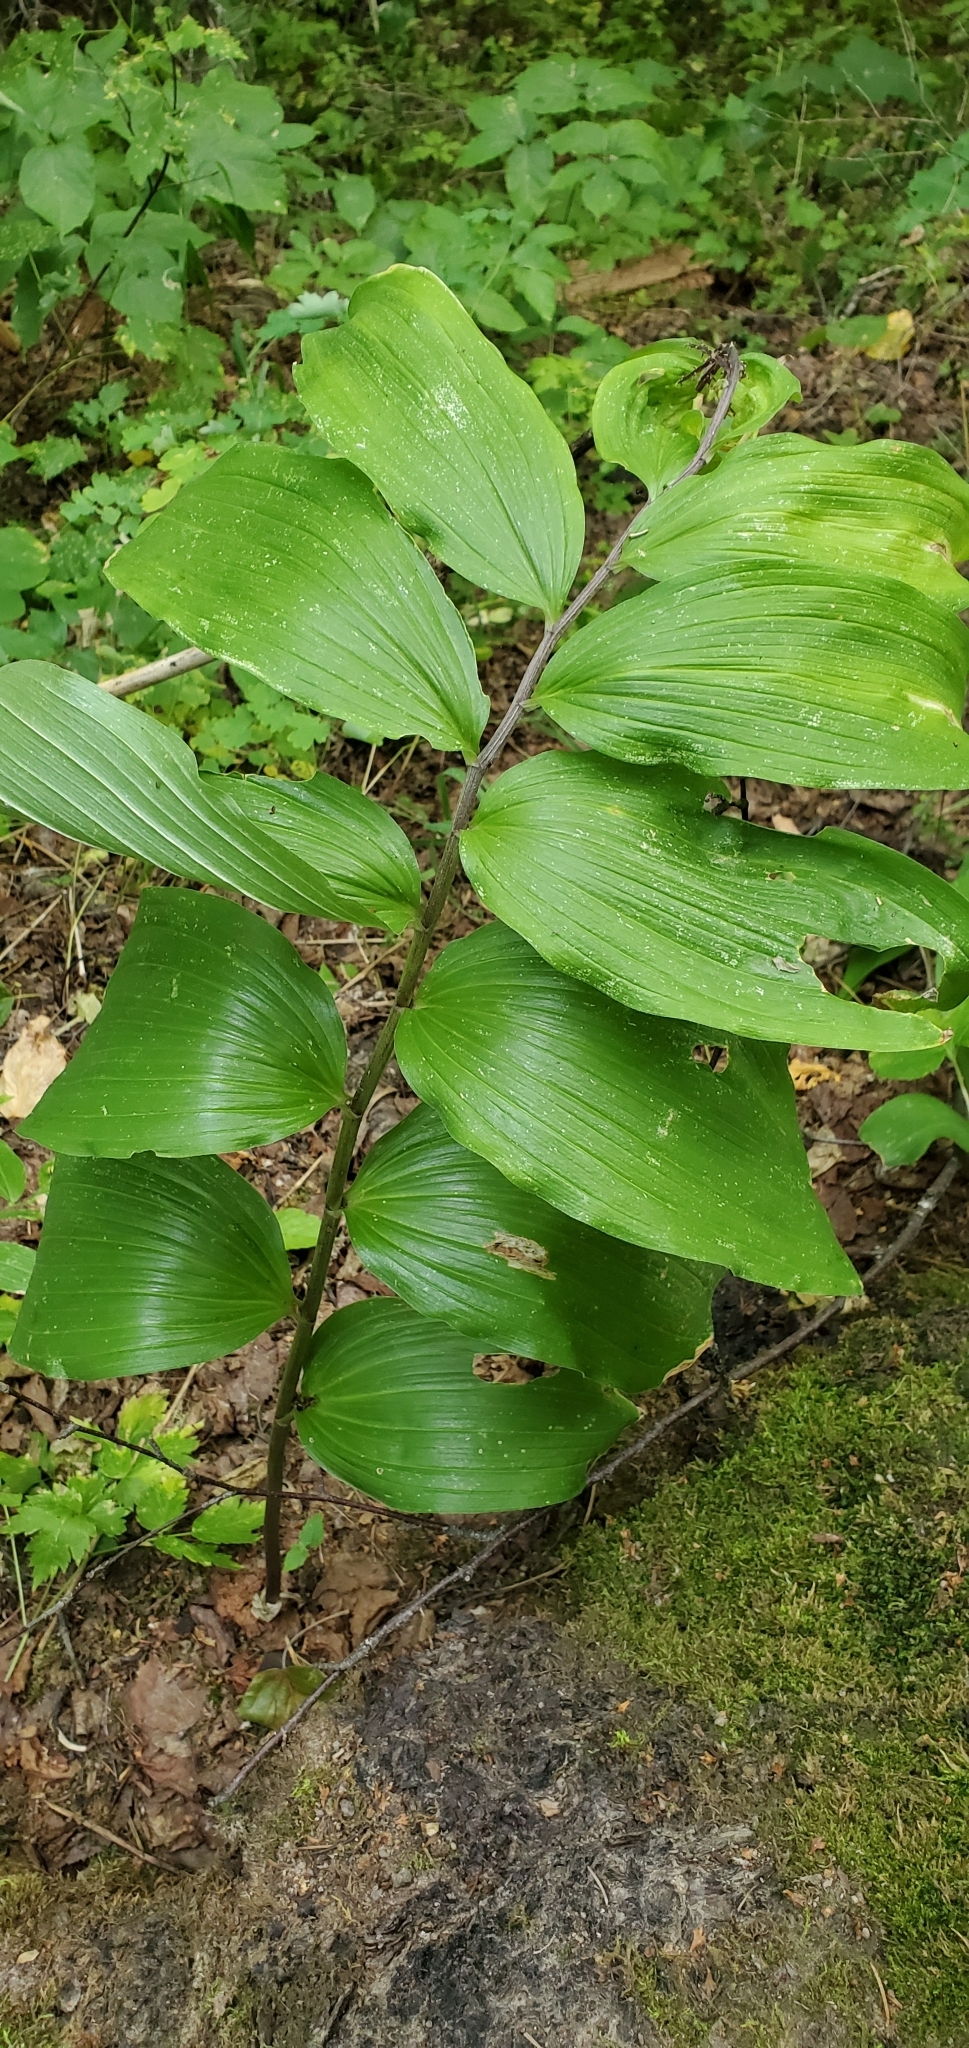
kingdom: Plantae
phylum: Tracheophyta
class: Liliopsida
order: Asparagales
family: Asparagaceae
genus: Maianthemum
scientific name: Maianthemum racemosum
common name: False spikenard
